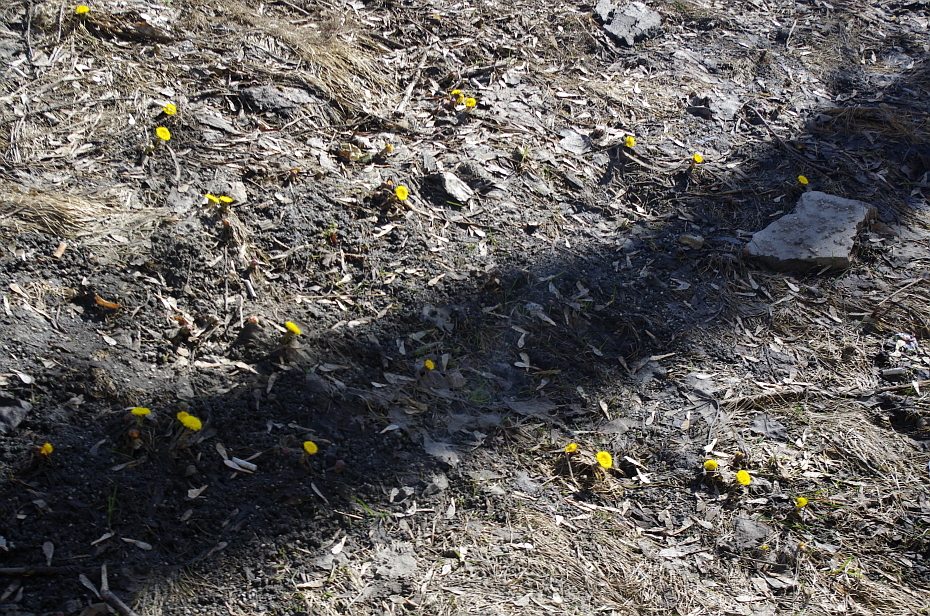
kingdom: Plantae
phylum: Tracheophyta
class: Magnoliopsida
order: Asterales
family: Asteraceae
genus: Tussilago
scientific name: Tussilago farfara
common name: Coltsfoot
